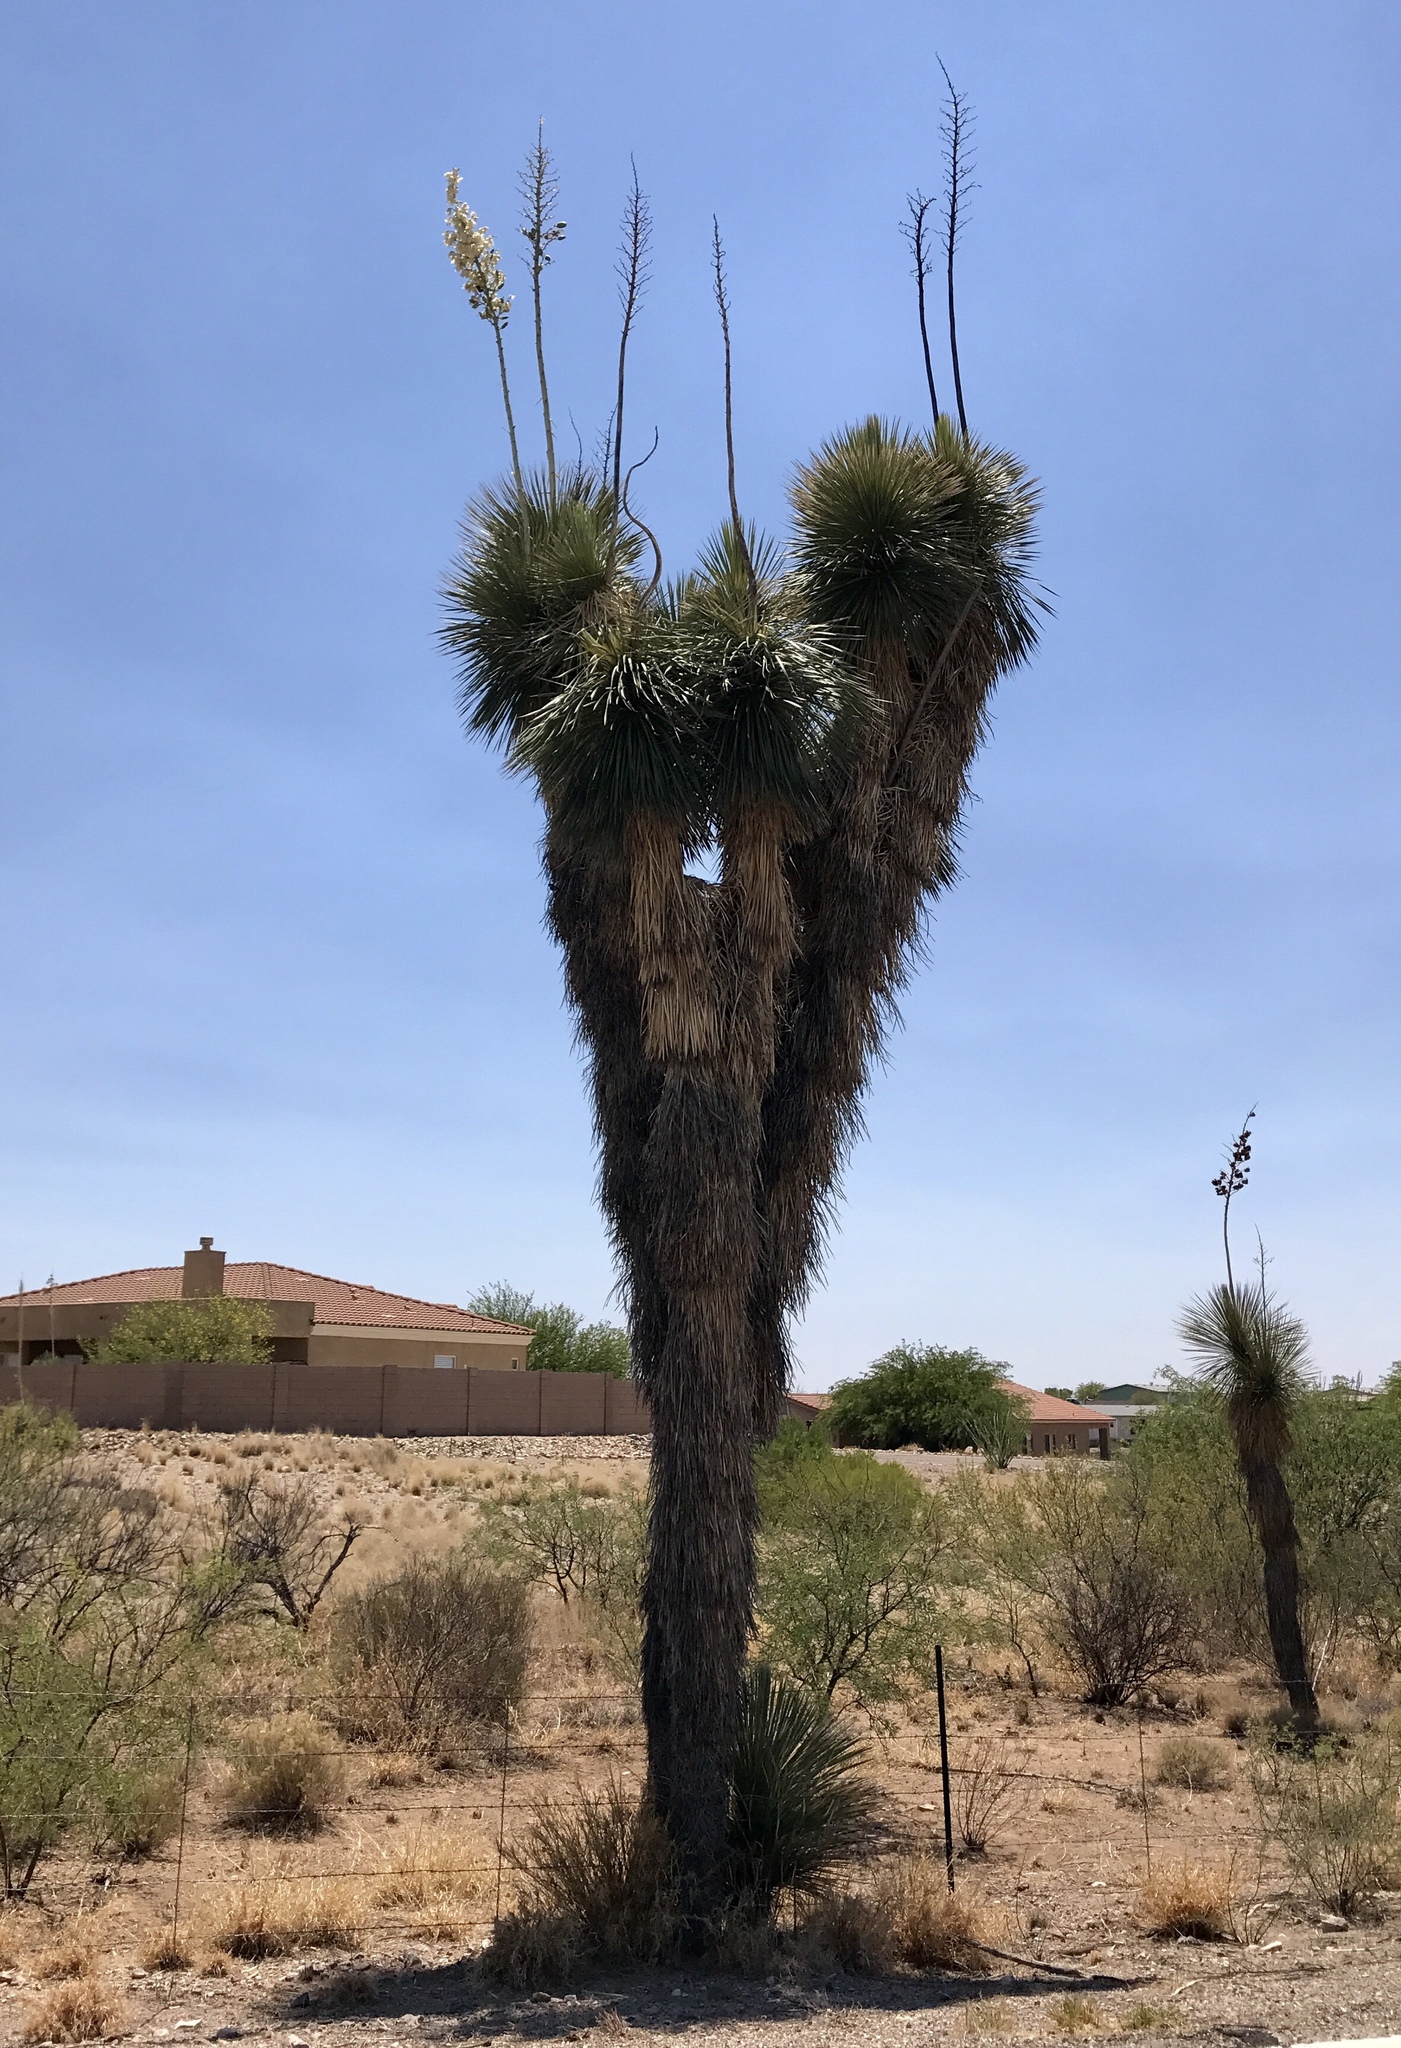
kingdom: Plantae
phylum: Tracheophyta
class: Liliopsida
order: Asparagales
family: Asparagaceae
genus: Yucca
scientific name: Yucca elata
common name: Palmella
